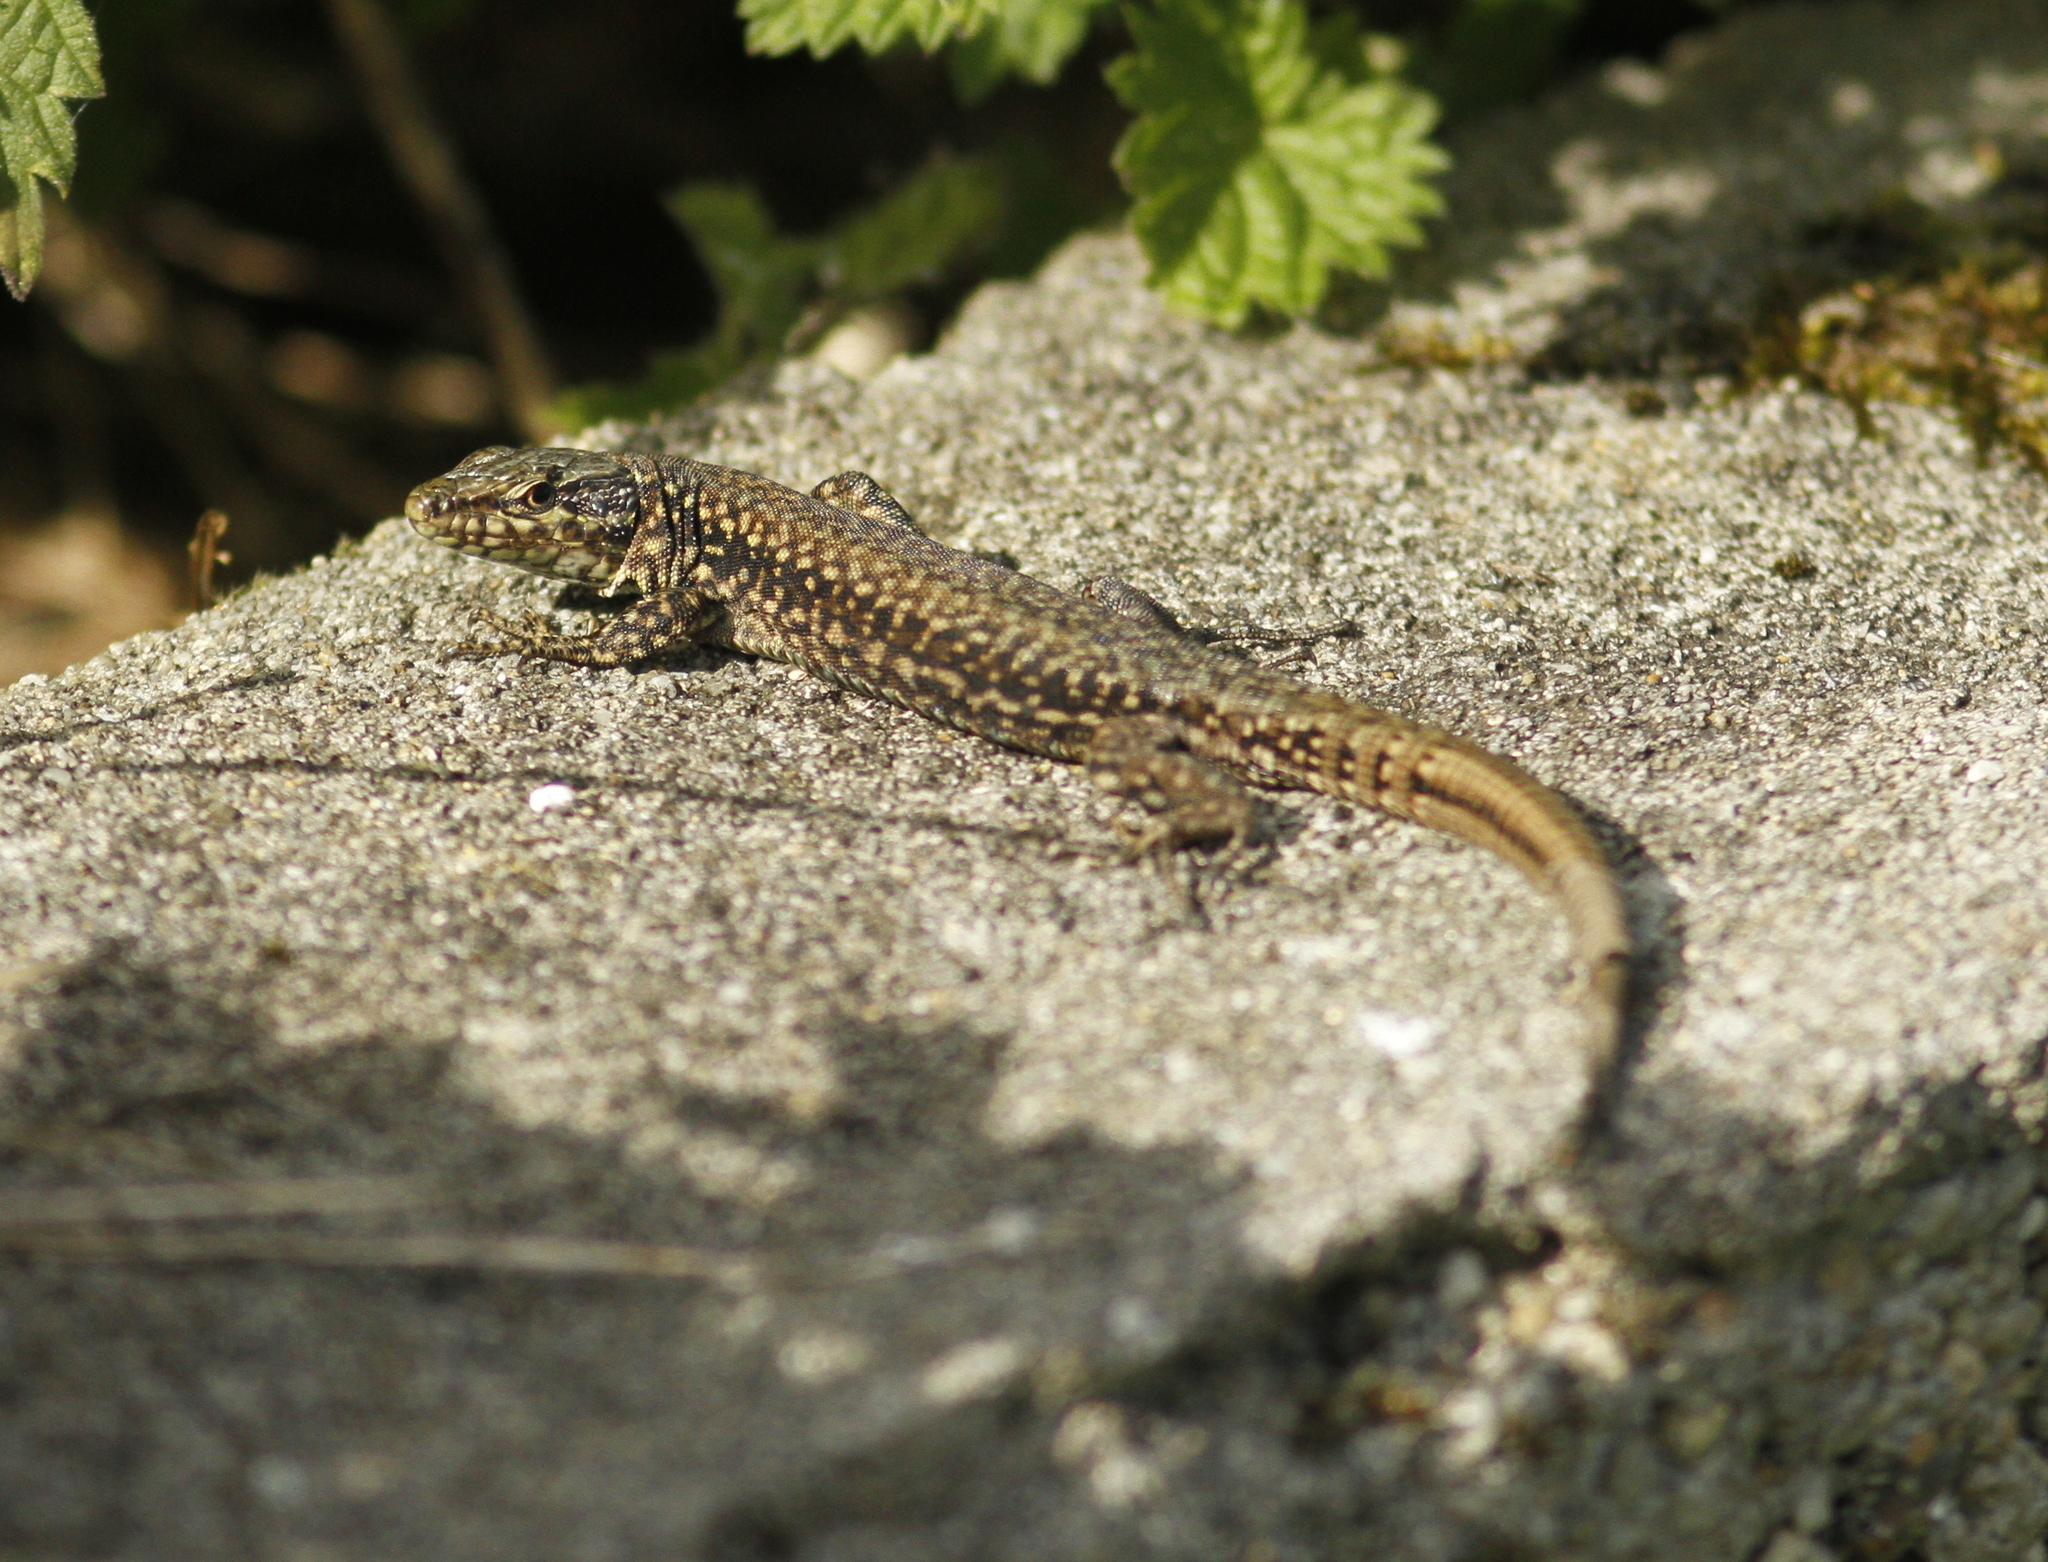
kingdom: Animalia
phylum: Chordata
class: Squamata
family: Lacertidae
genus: Podarcis
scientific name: Podarcis muralis
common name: Common wall lizard
